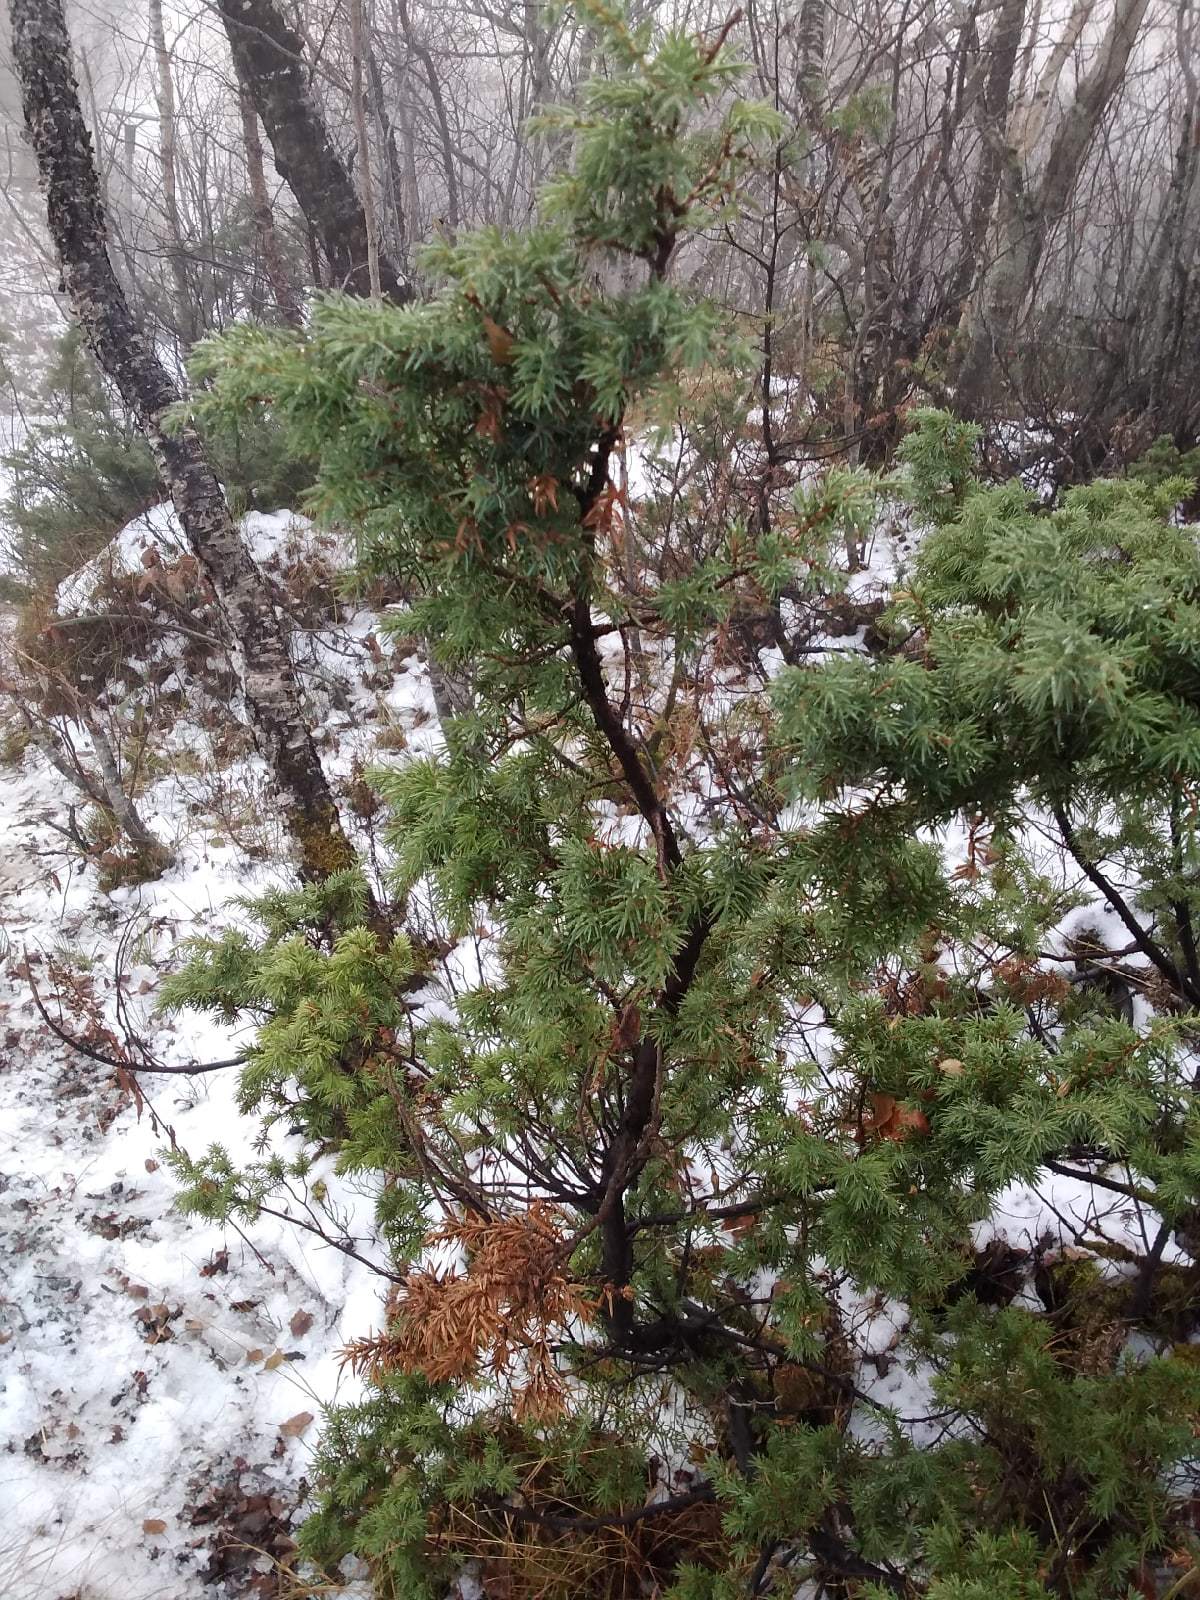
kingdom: Plantae
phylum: Tracheophyta
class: Pinopsida
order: Pinales
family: Cupressaceae
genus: Juniperus
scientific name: Juniperus communis
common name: Common juniper
